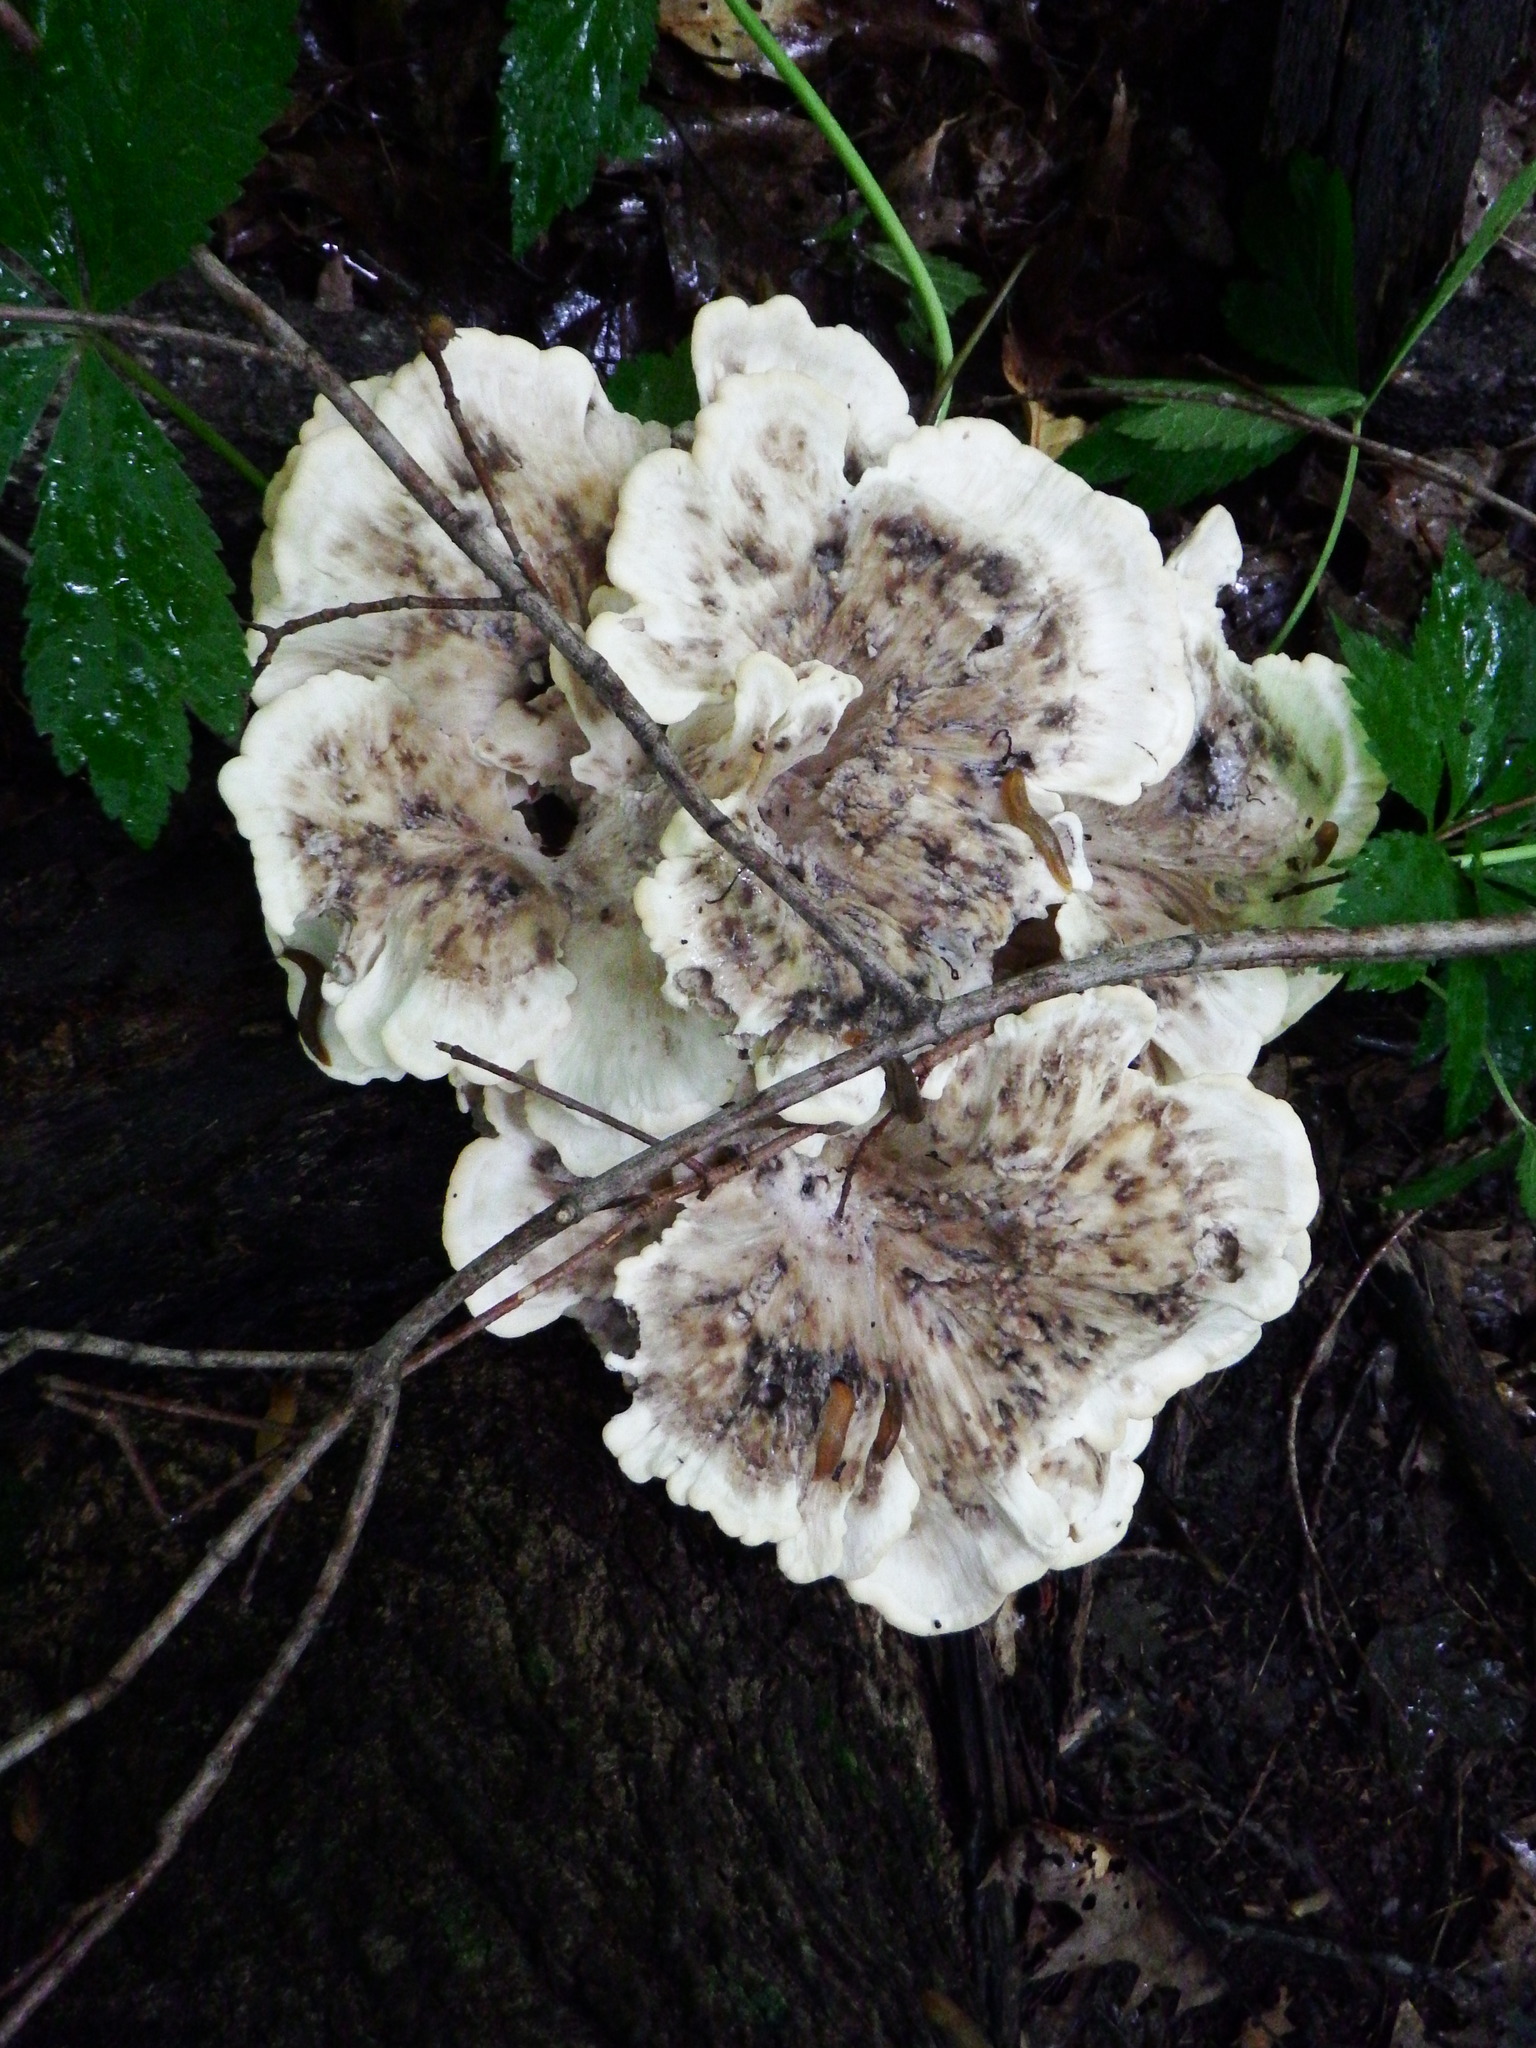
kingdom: Fungi
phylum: Basidiomycota
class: Agaricomycetes
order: Polyporales
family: Meripilaceae
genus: Meripilus
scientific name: Meripilus sumstinei
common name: Black-staining polypore
